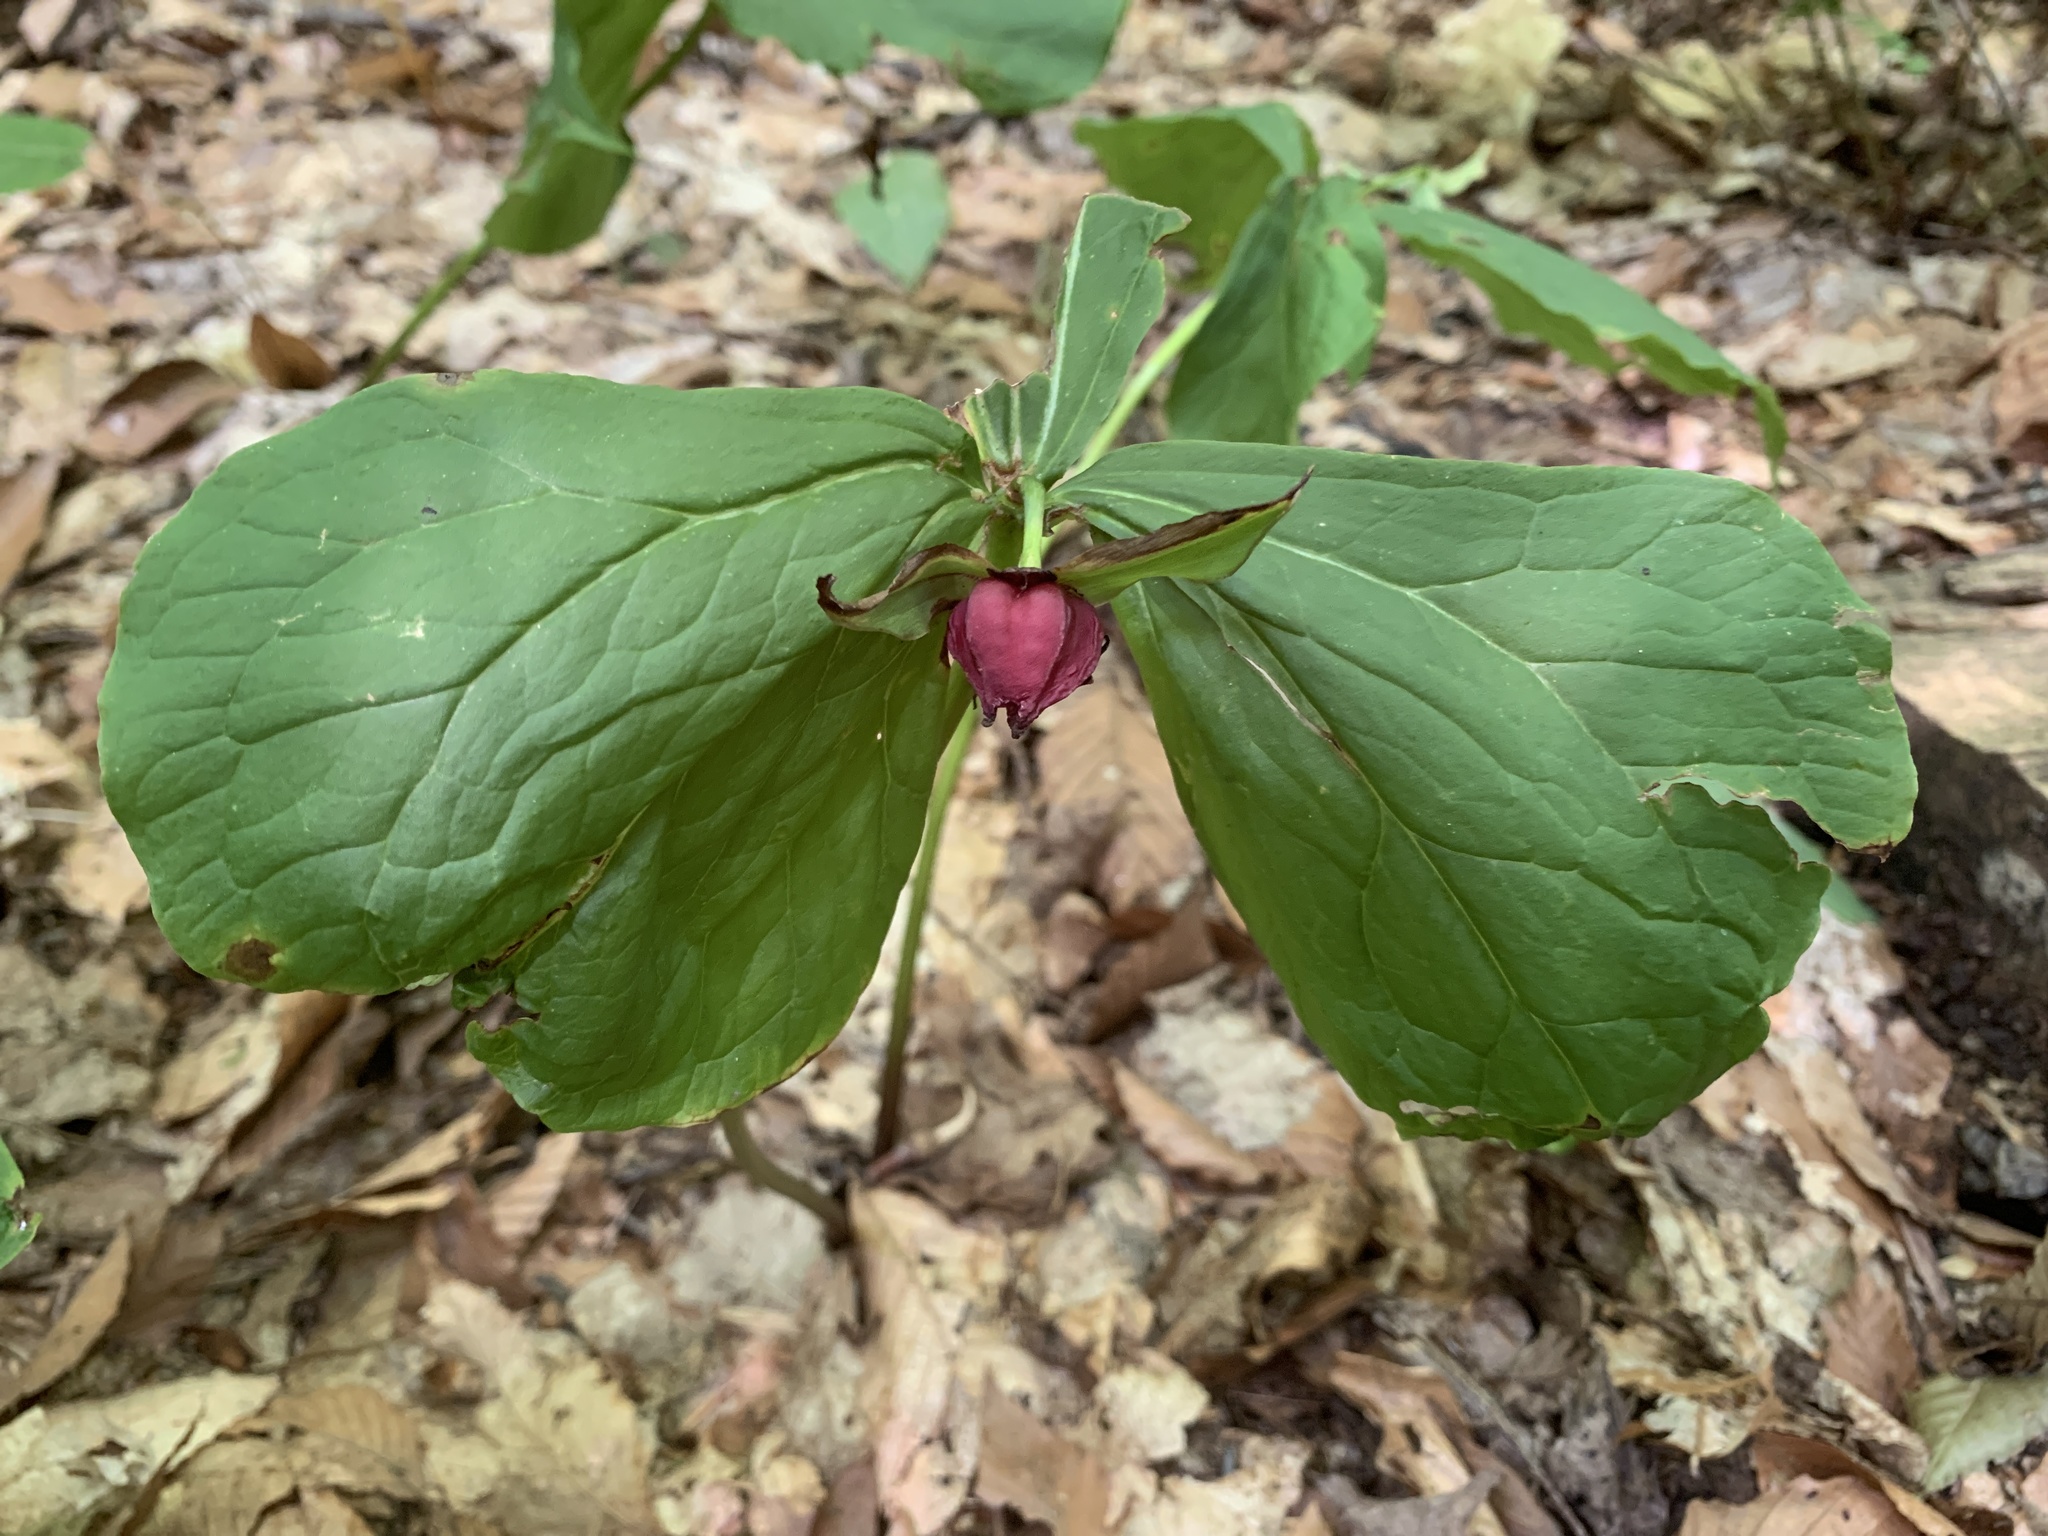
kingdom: Plantae
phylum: Tracheophyta
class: Liliopsida
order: Liliales
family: Melanthiaceae
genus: Trillium
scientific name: Trillium erectum
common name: Purple trillium
